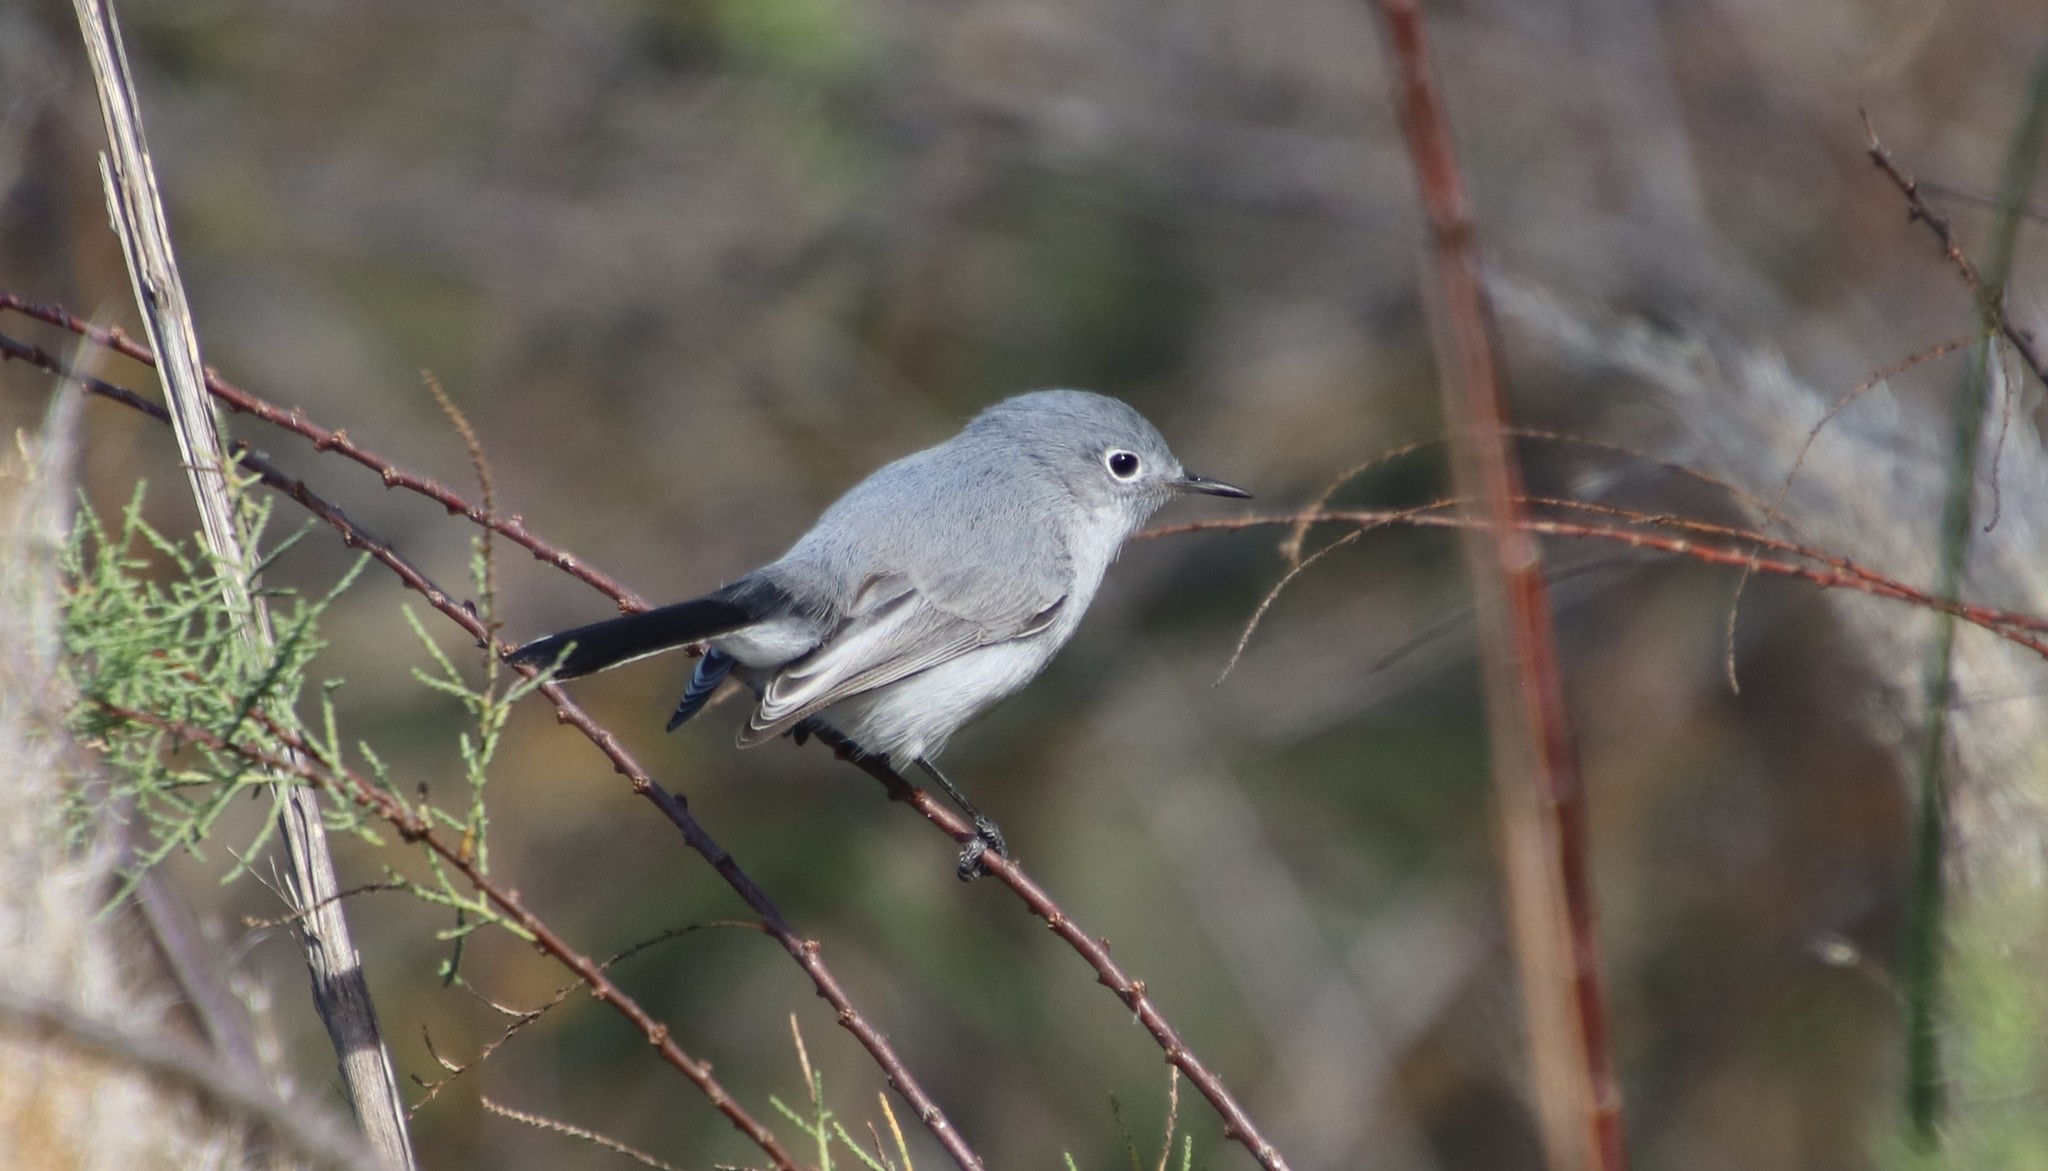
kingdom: Animalia
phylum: Chordata
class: Aves
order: Passeriformes
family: Polioptilidae
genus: Polioptila
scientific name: Polioptila caerulea
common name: Blue-gray gnatcatcher
